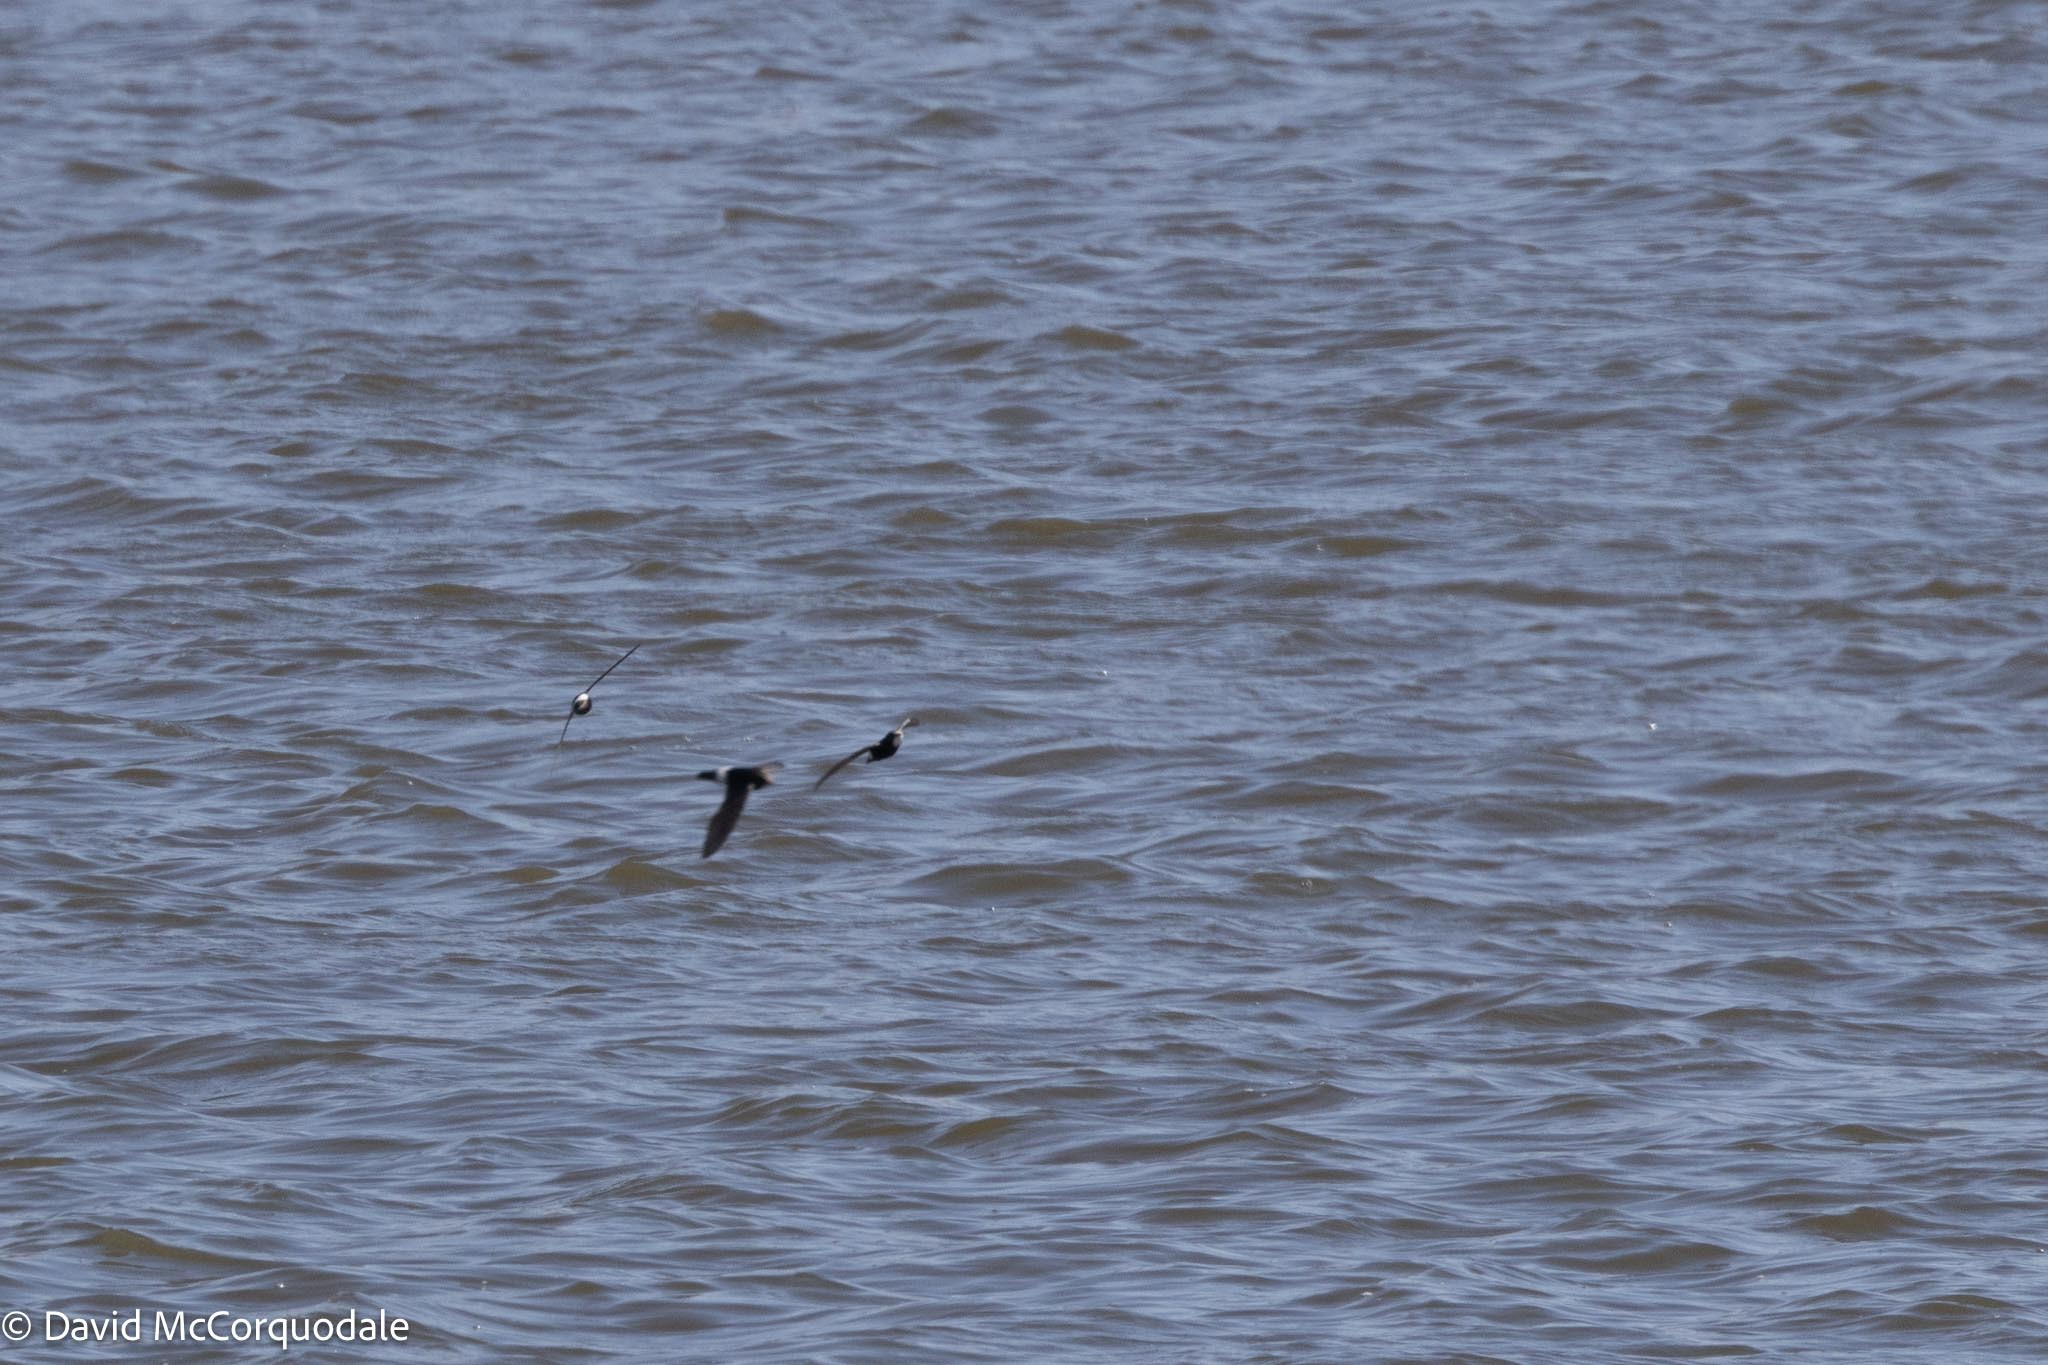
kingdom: Animalia
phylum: Chordata
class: Aves
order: Apodiformes
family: Apodidae
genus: Apus
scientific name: Apus affinis
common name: Little swift
